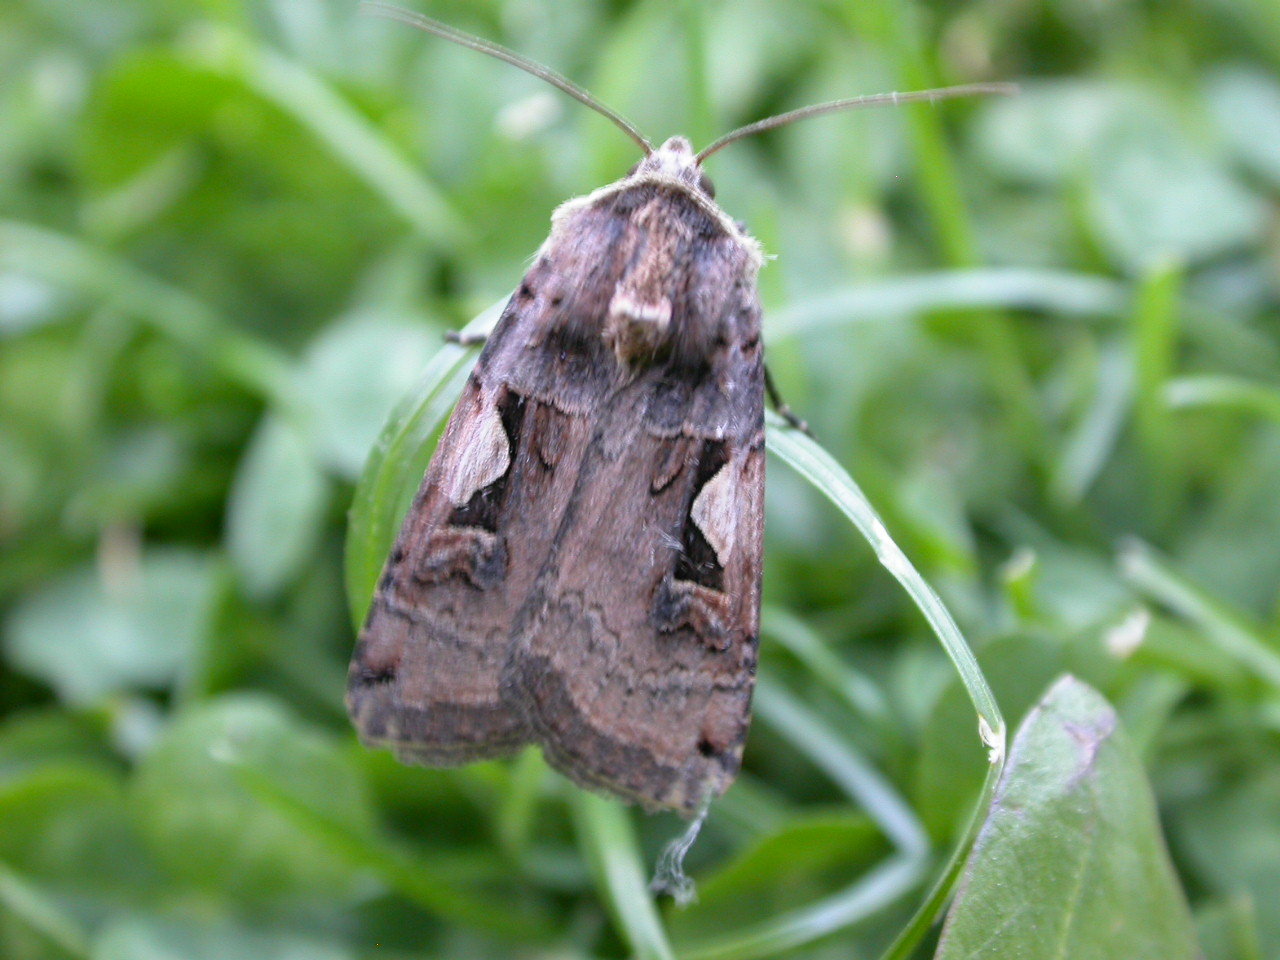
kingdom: Animalia
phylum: Arthropoda
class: Insecta
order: Lepidoptera
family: Noctuidae
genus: Xestia
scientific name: Xestia c-nigrum
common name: Setaceous hebrew character
